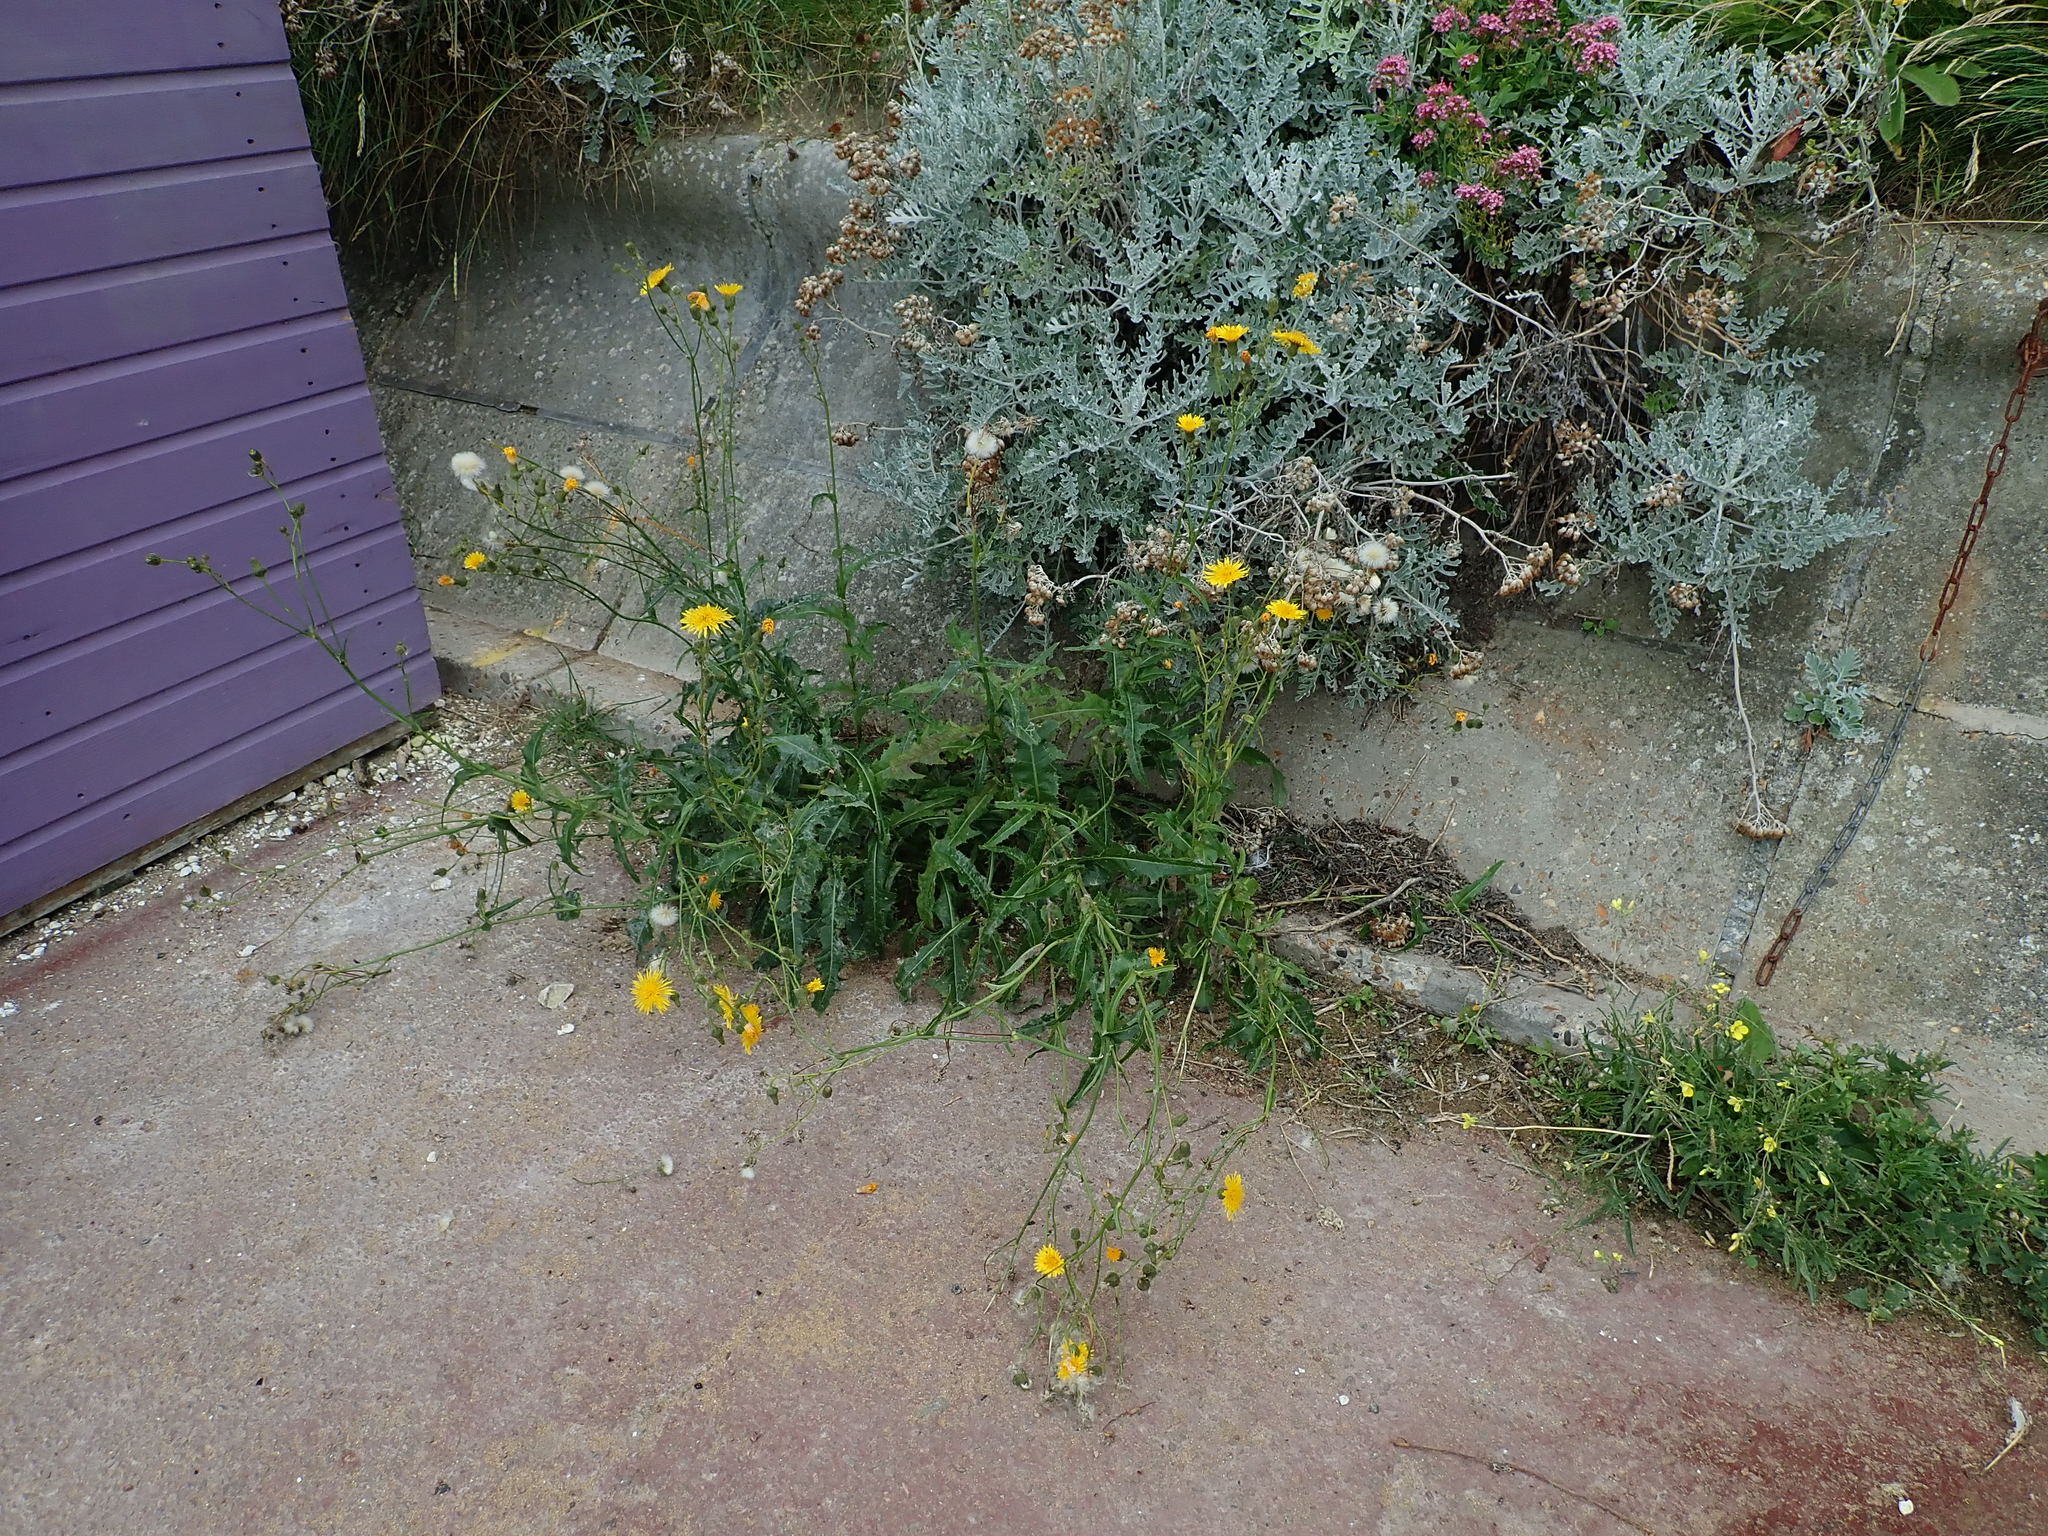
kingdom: Plantae
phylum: Tracheophyta
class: Magnoliopsida
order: Asterales
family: Asteraceae
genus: Sonchus
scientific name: Sonchus arvensis
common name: Perennial sow-thistle
